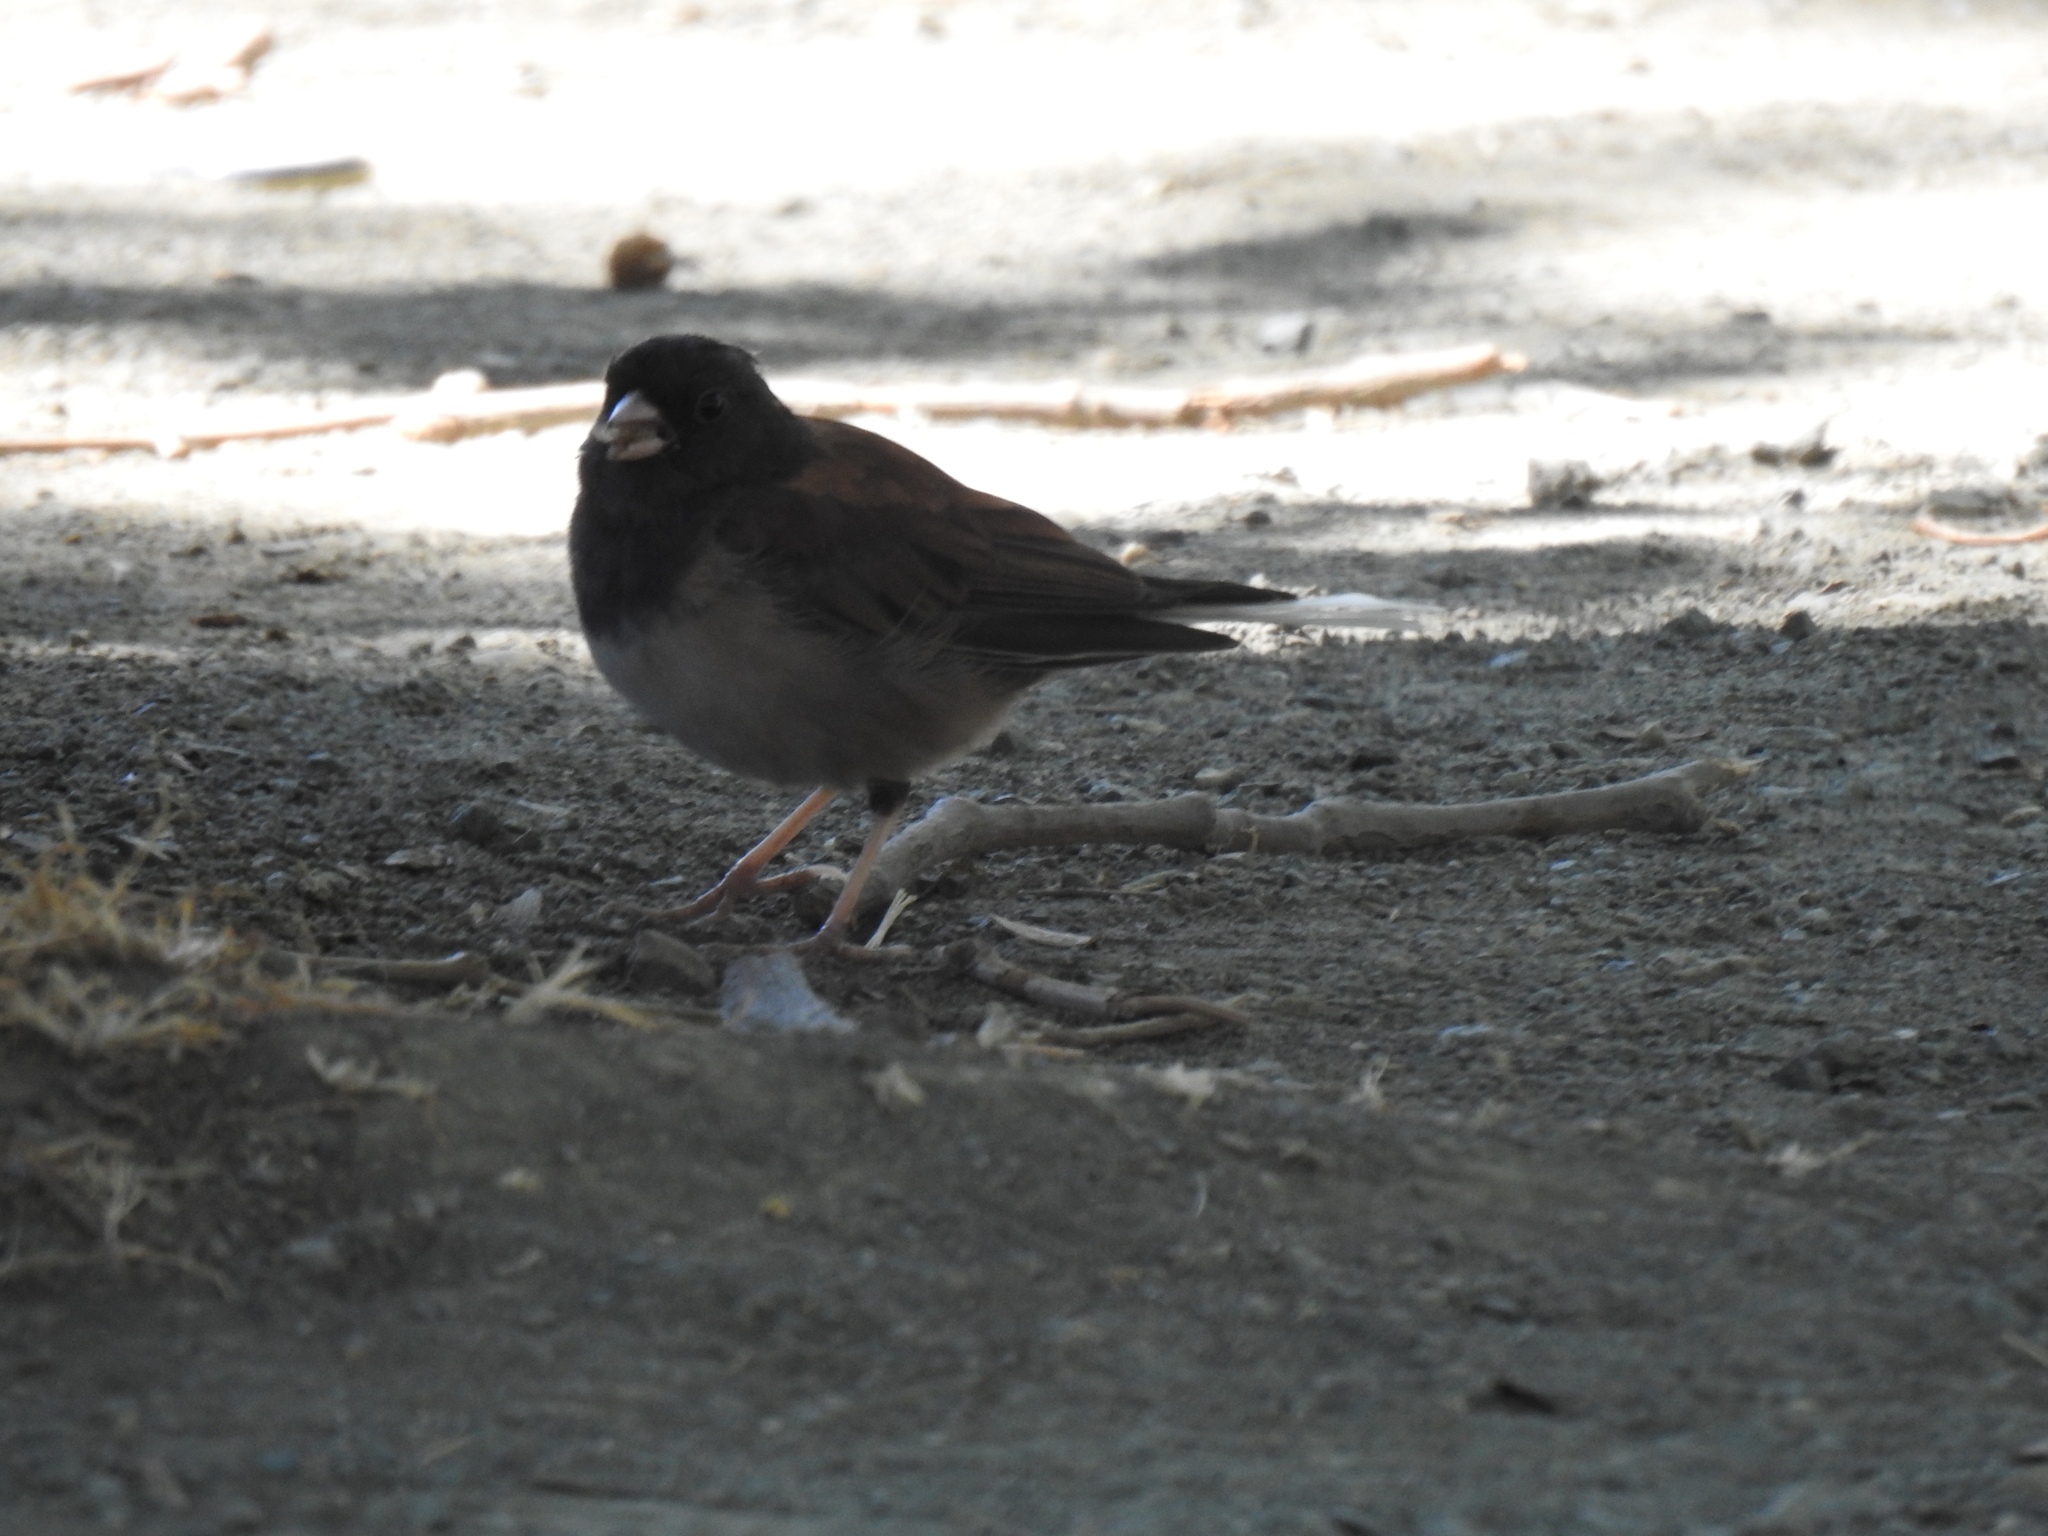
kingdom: Animalia
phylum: Chordata
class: Aves
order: Passeriformes
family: Passerellidae
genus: Junco
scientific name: Junco hyemalis
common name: Dark-eyed junco
